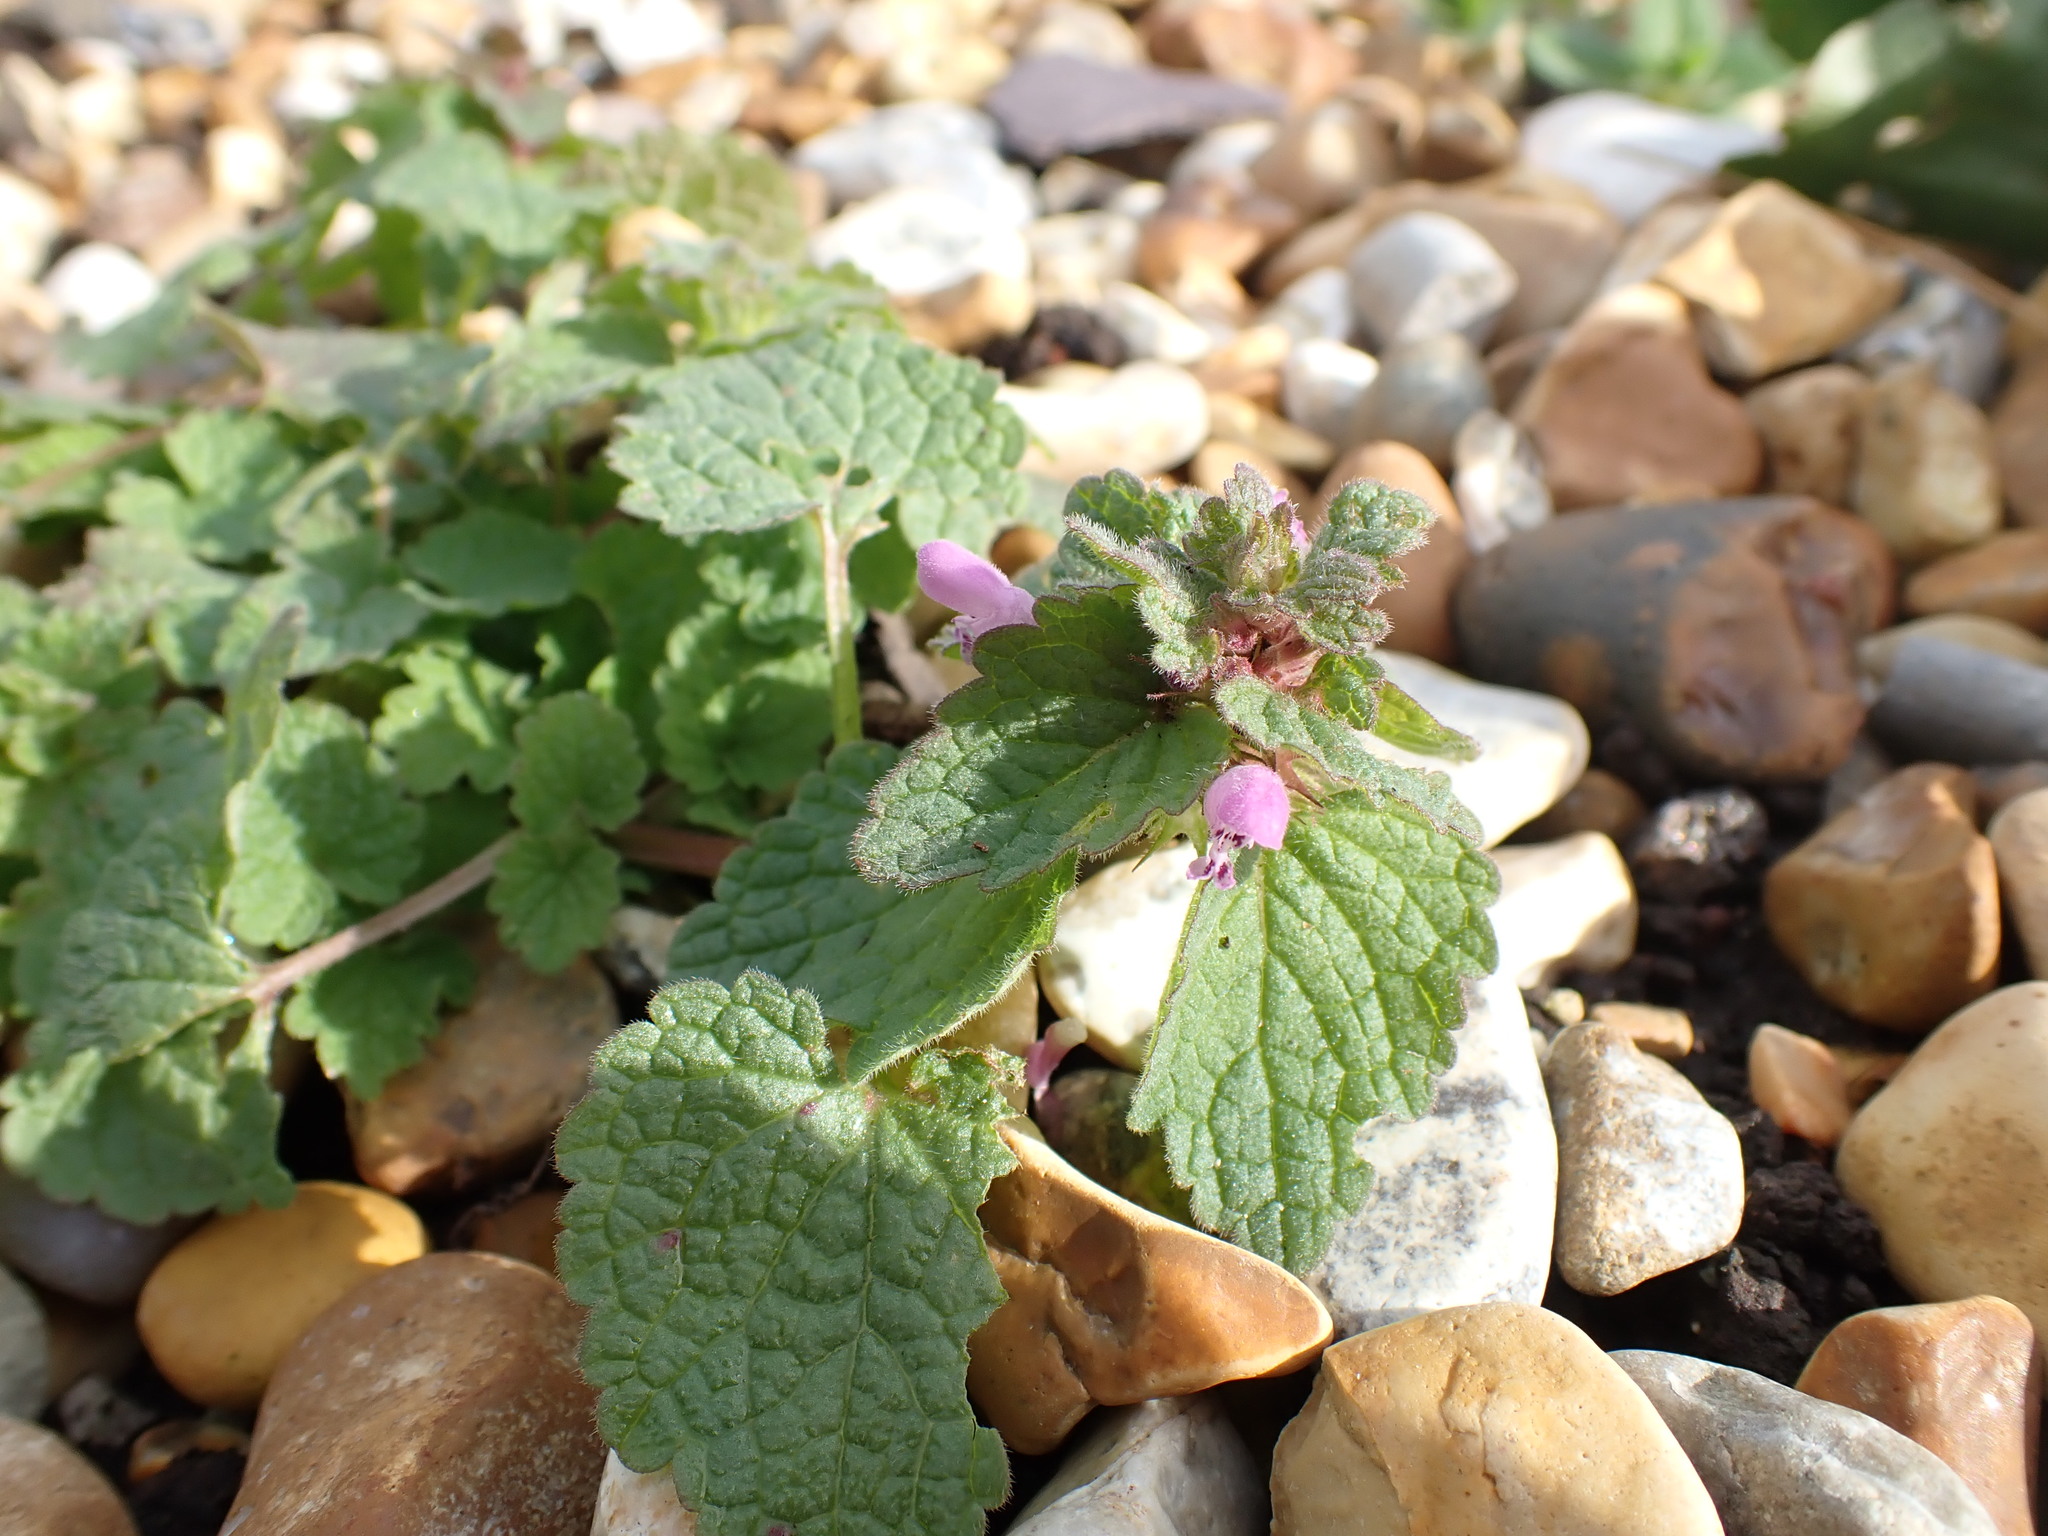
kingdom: Plantae
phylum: Tracheophyta
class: Magnoliopsida
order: Lamiales
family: Lamiaceae
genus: Lamium
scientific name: Lamium purpureum
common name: Red dead-nettle
